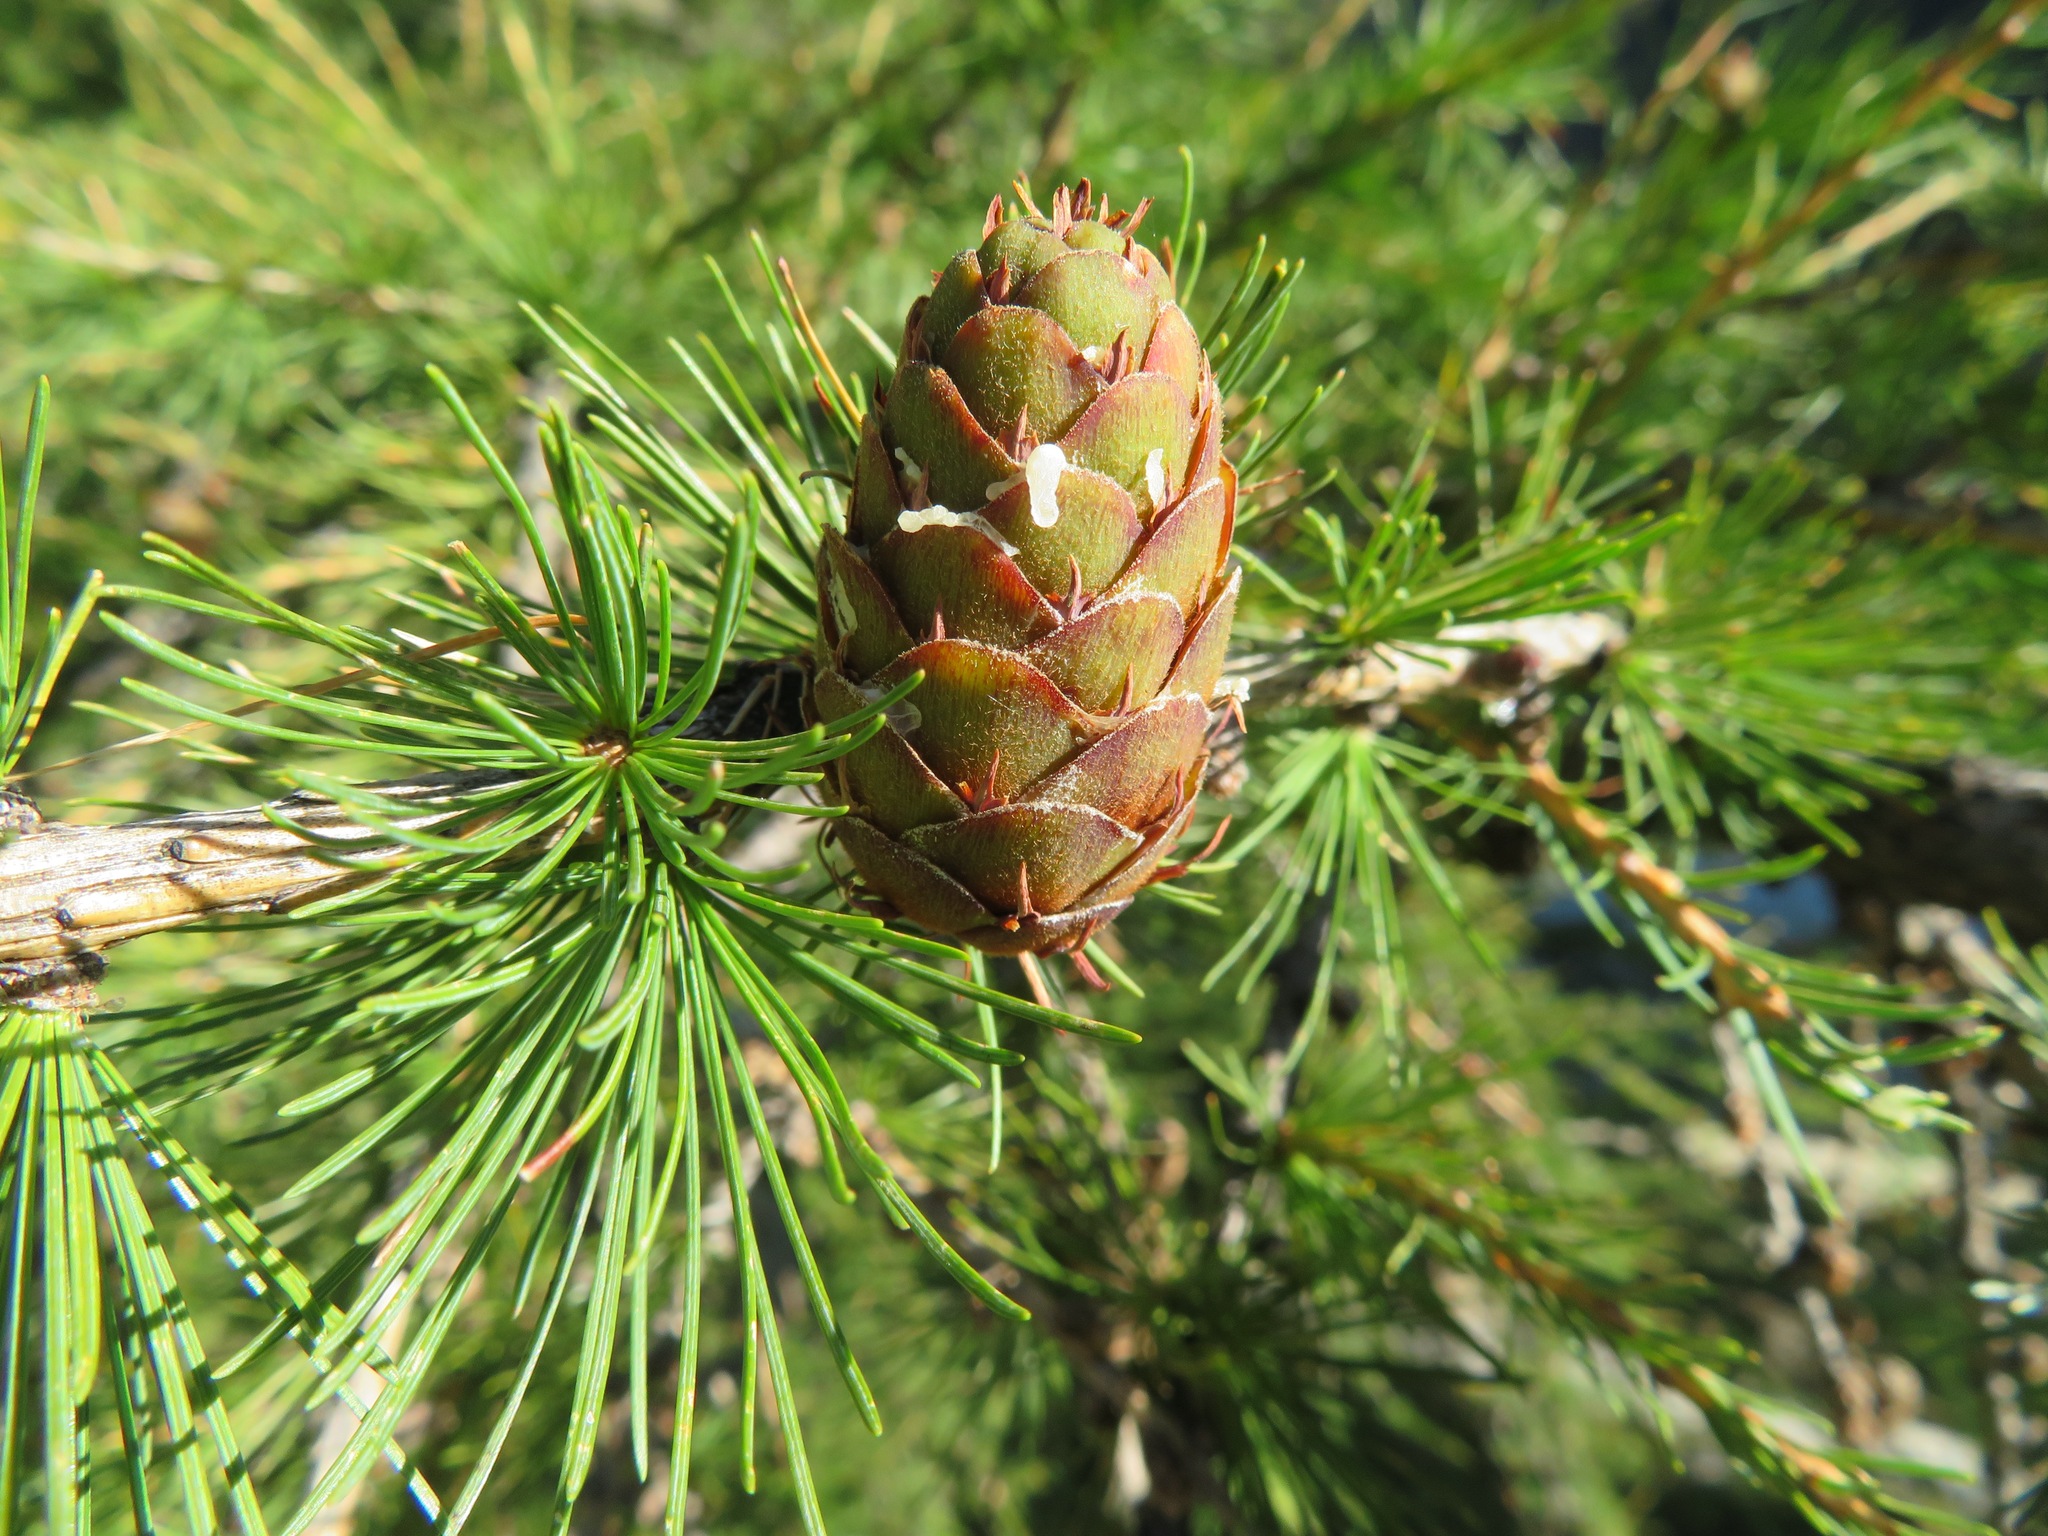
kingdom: Plantae
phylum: Tracheophyta
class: Pinopsida
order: Pinales
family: Pinaceae
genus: Larix
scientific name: Larix decidua
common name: European larch
